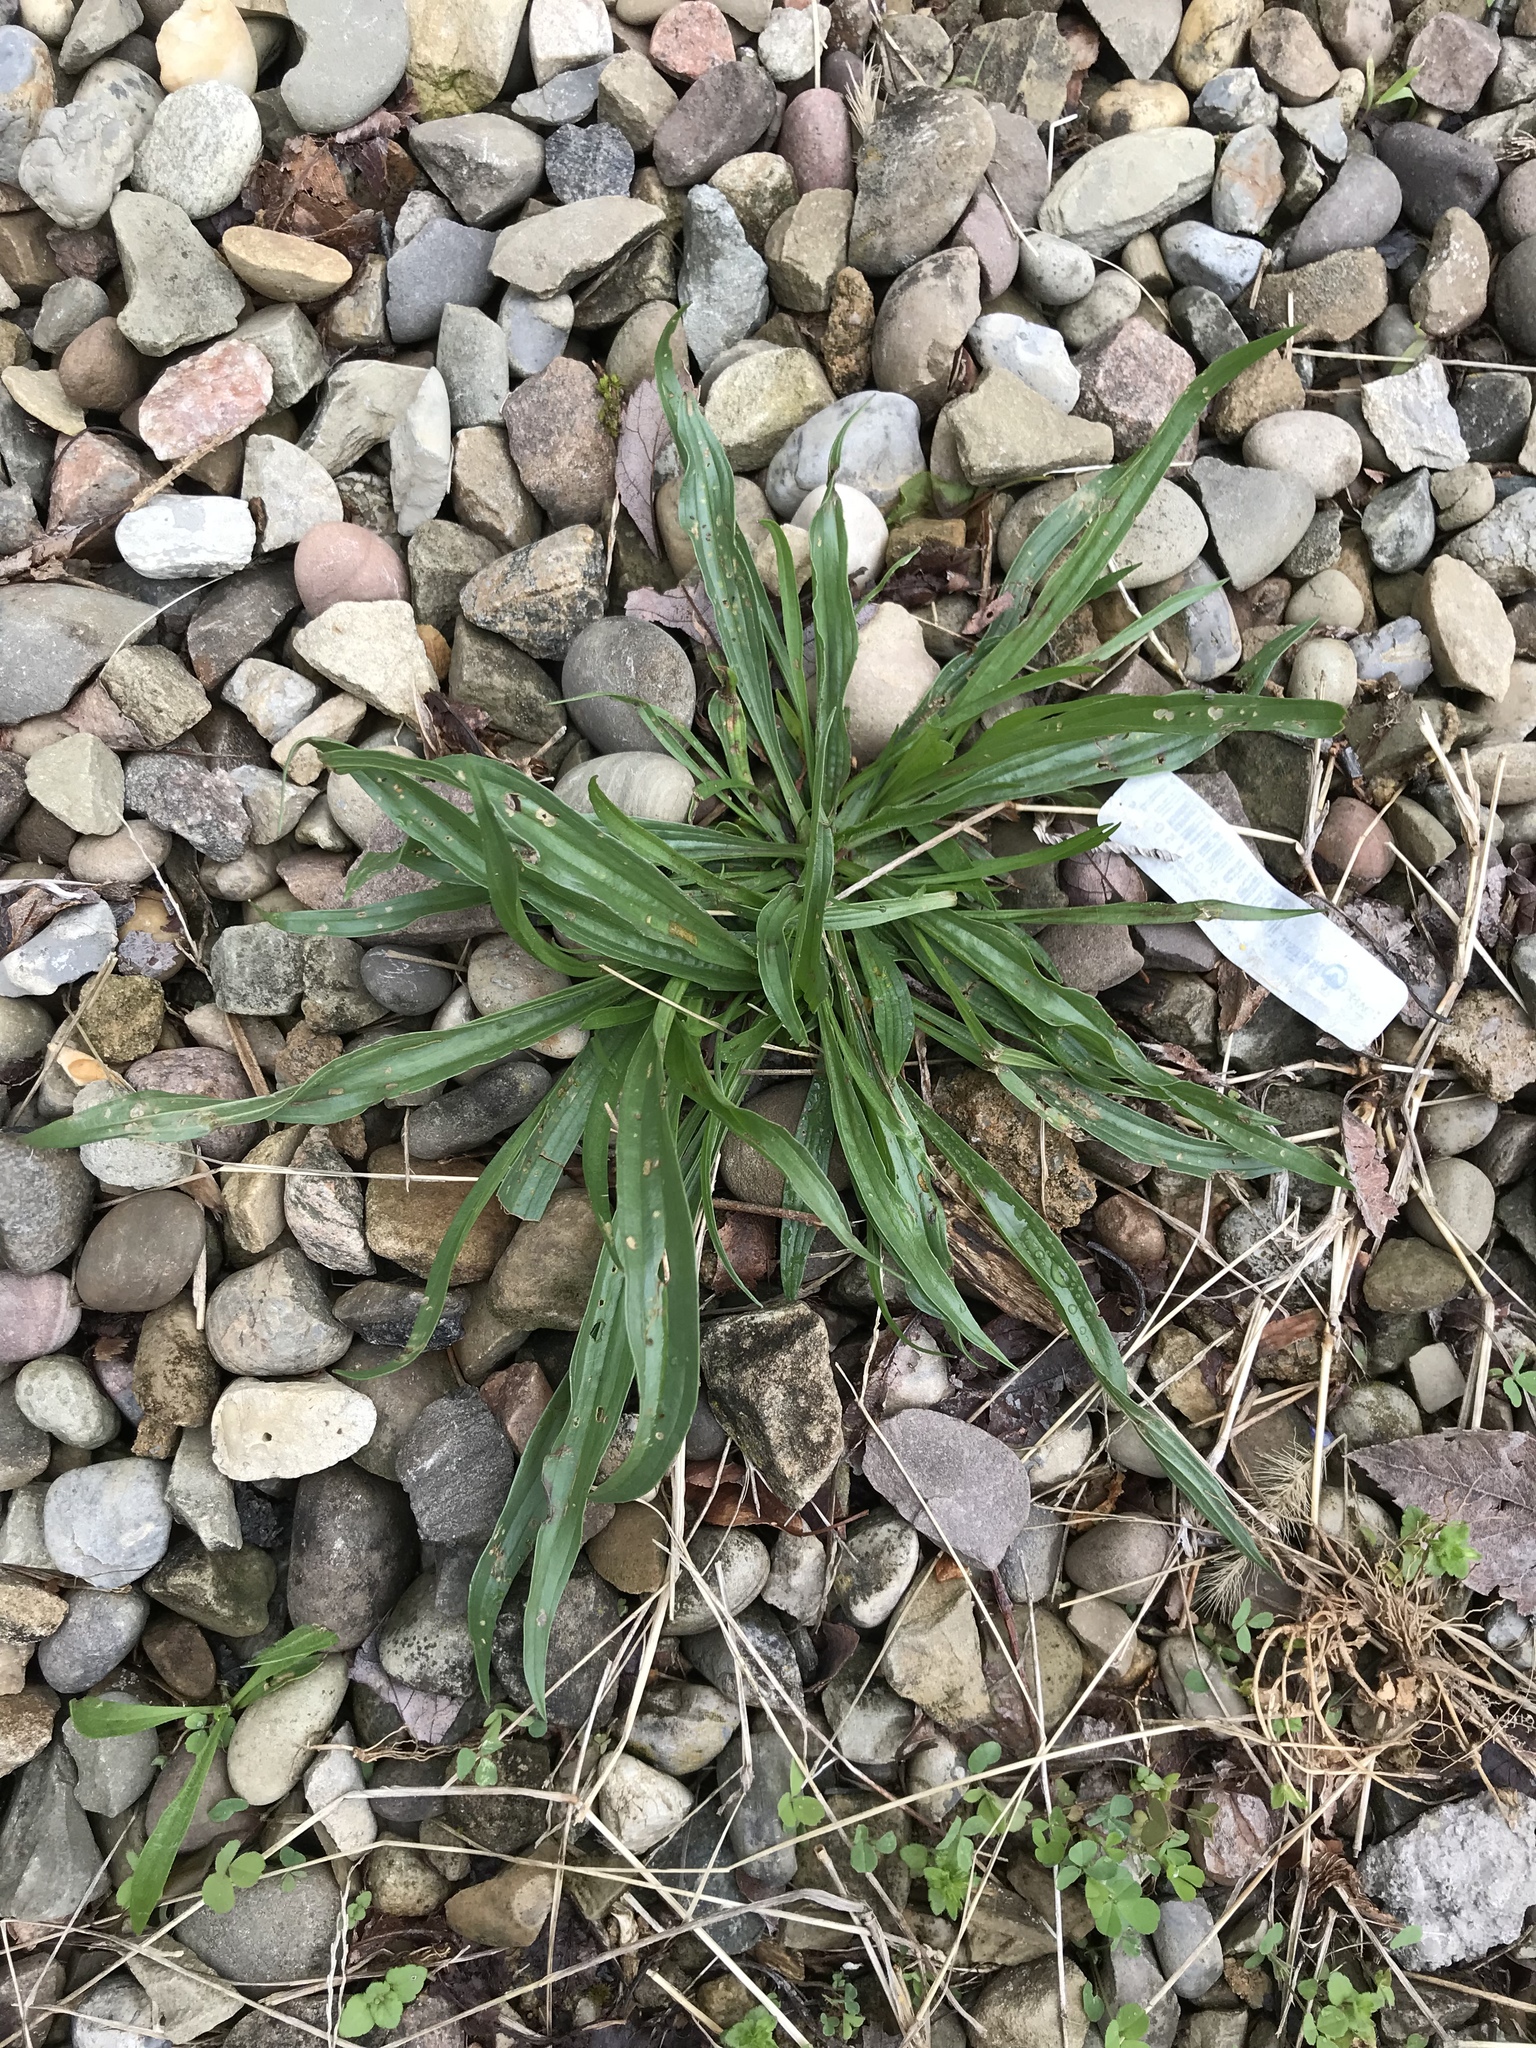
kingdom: Plantae
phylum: Tracheophyta
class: Magnoliopsida
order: Lamiales
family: Plantaginaceae
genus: Plantago
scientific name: Plantago lanceolata
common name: Ribwort plantain
